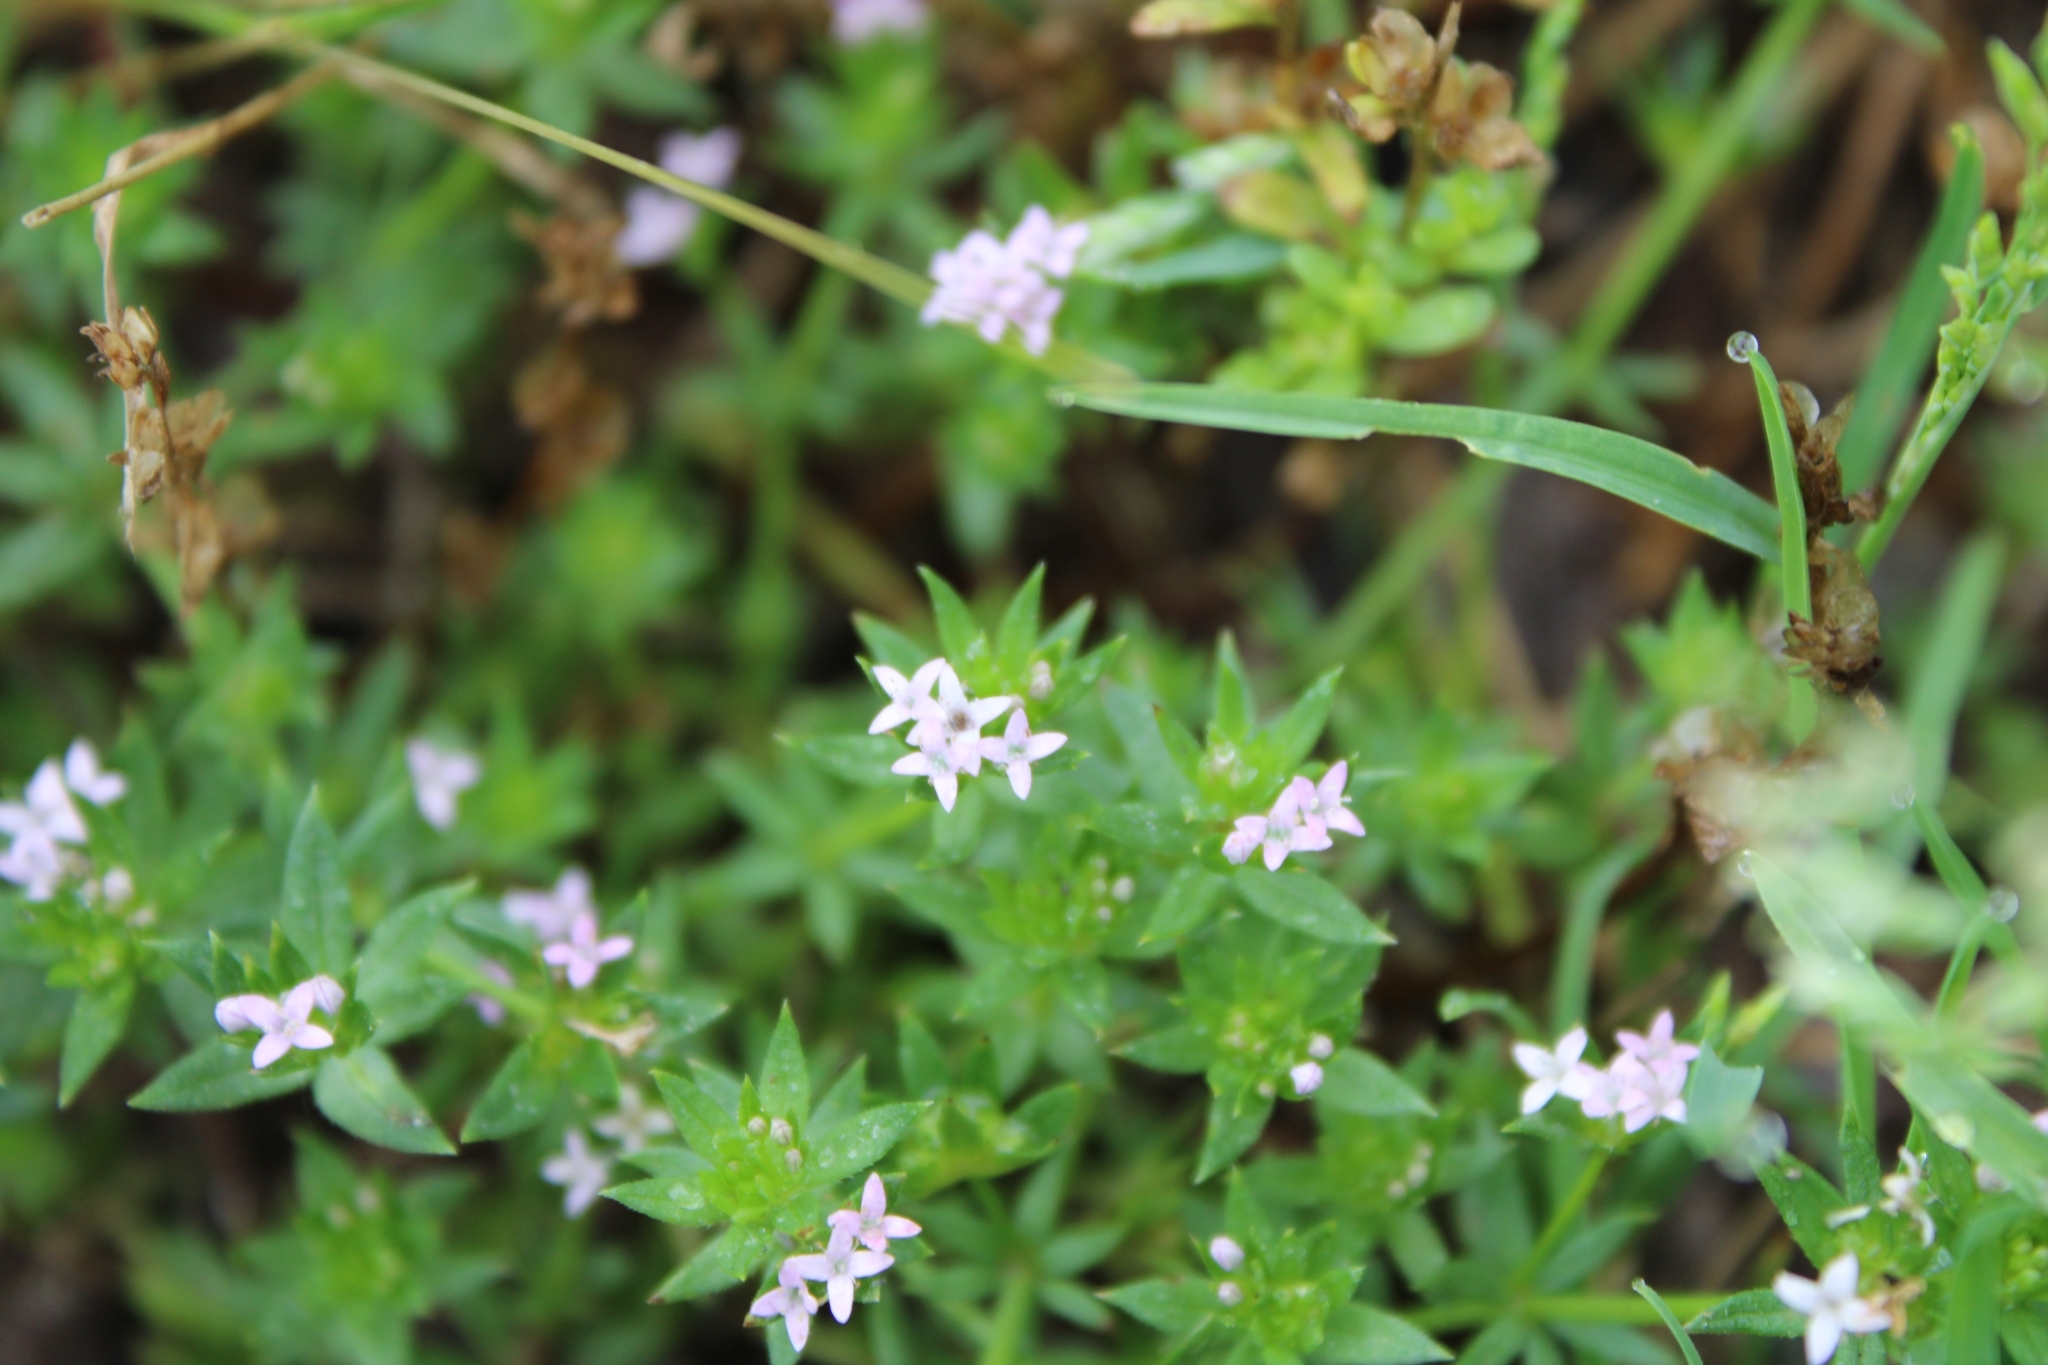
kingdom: Plantae
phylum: Tracheophyta
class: Magnoliopsida
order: Gentianales
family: Rubiaceae
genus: Sherardia
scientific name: Sherardia arvensis
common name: Field madder
